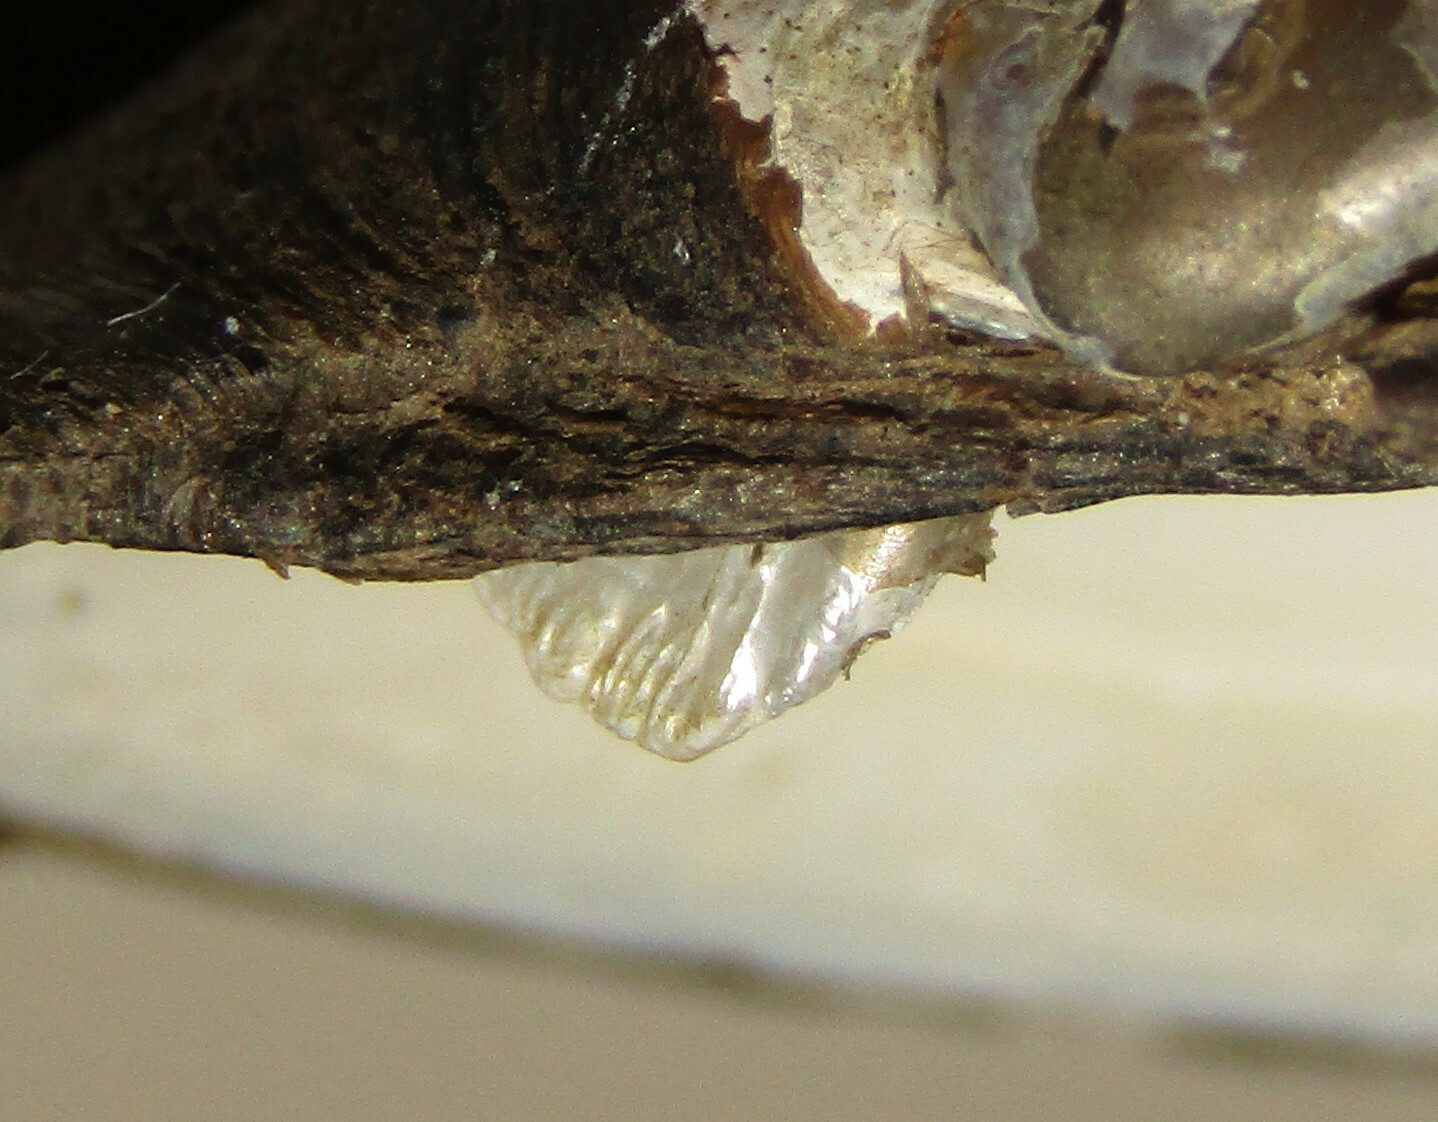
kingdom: Animalia
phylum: Mollusca
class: Bivalvia
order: Unionida
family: Unionidae
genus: Unio
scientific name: Unio tumidus
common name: Swollen river mussel
